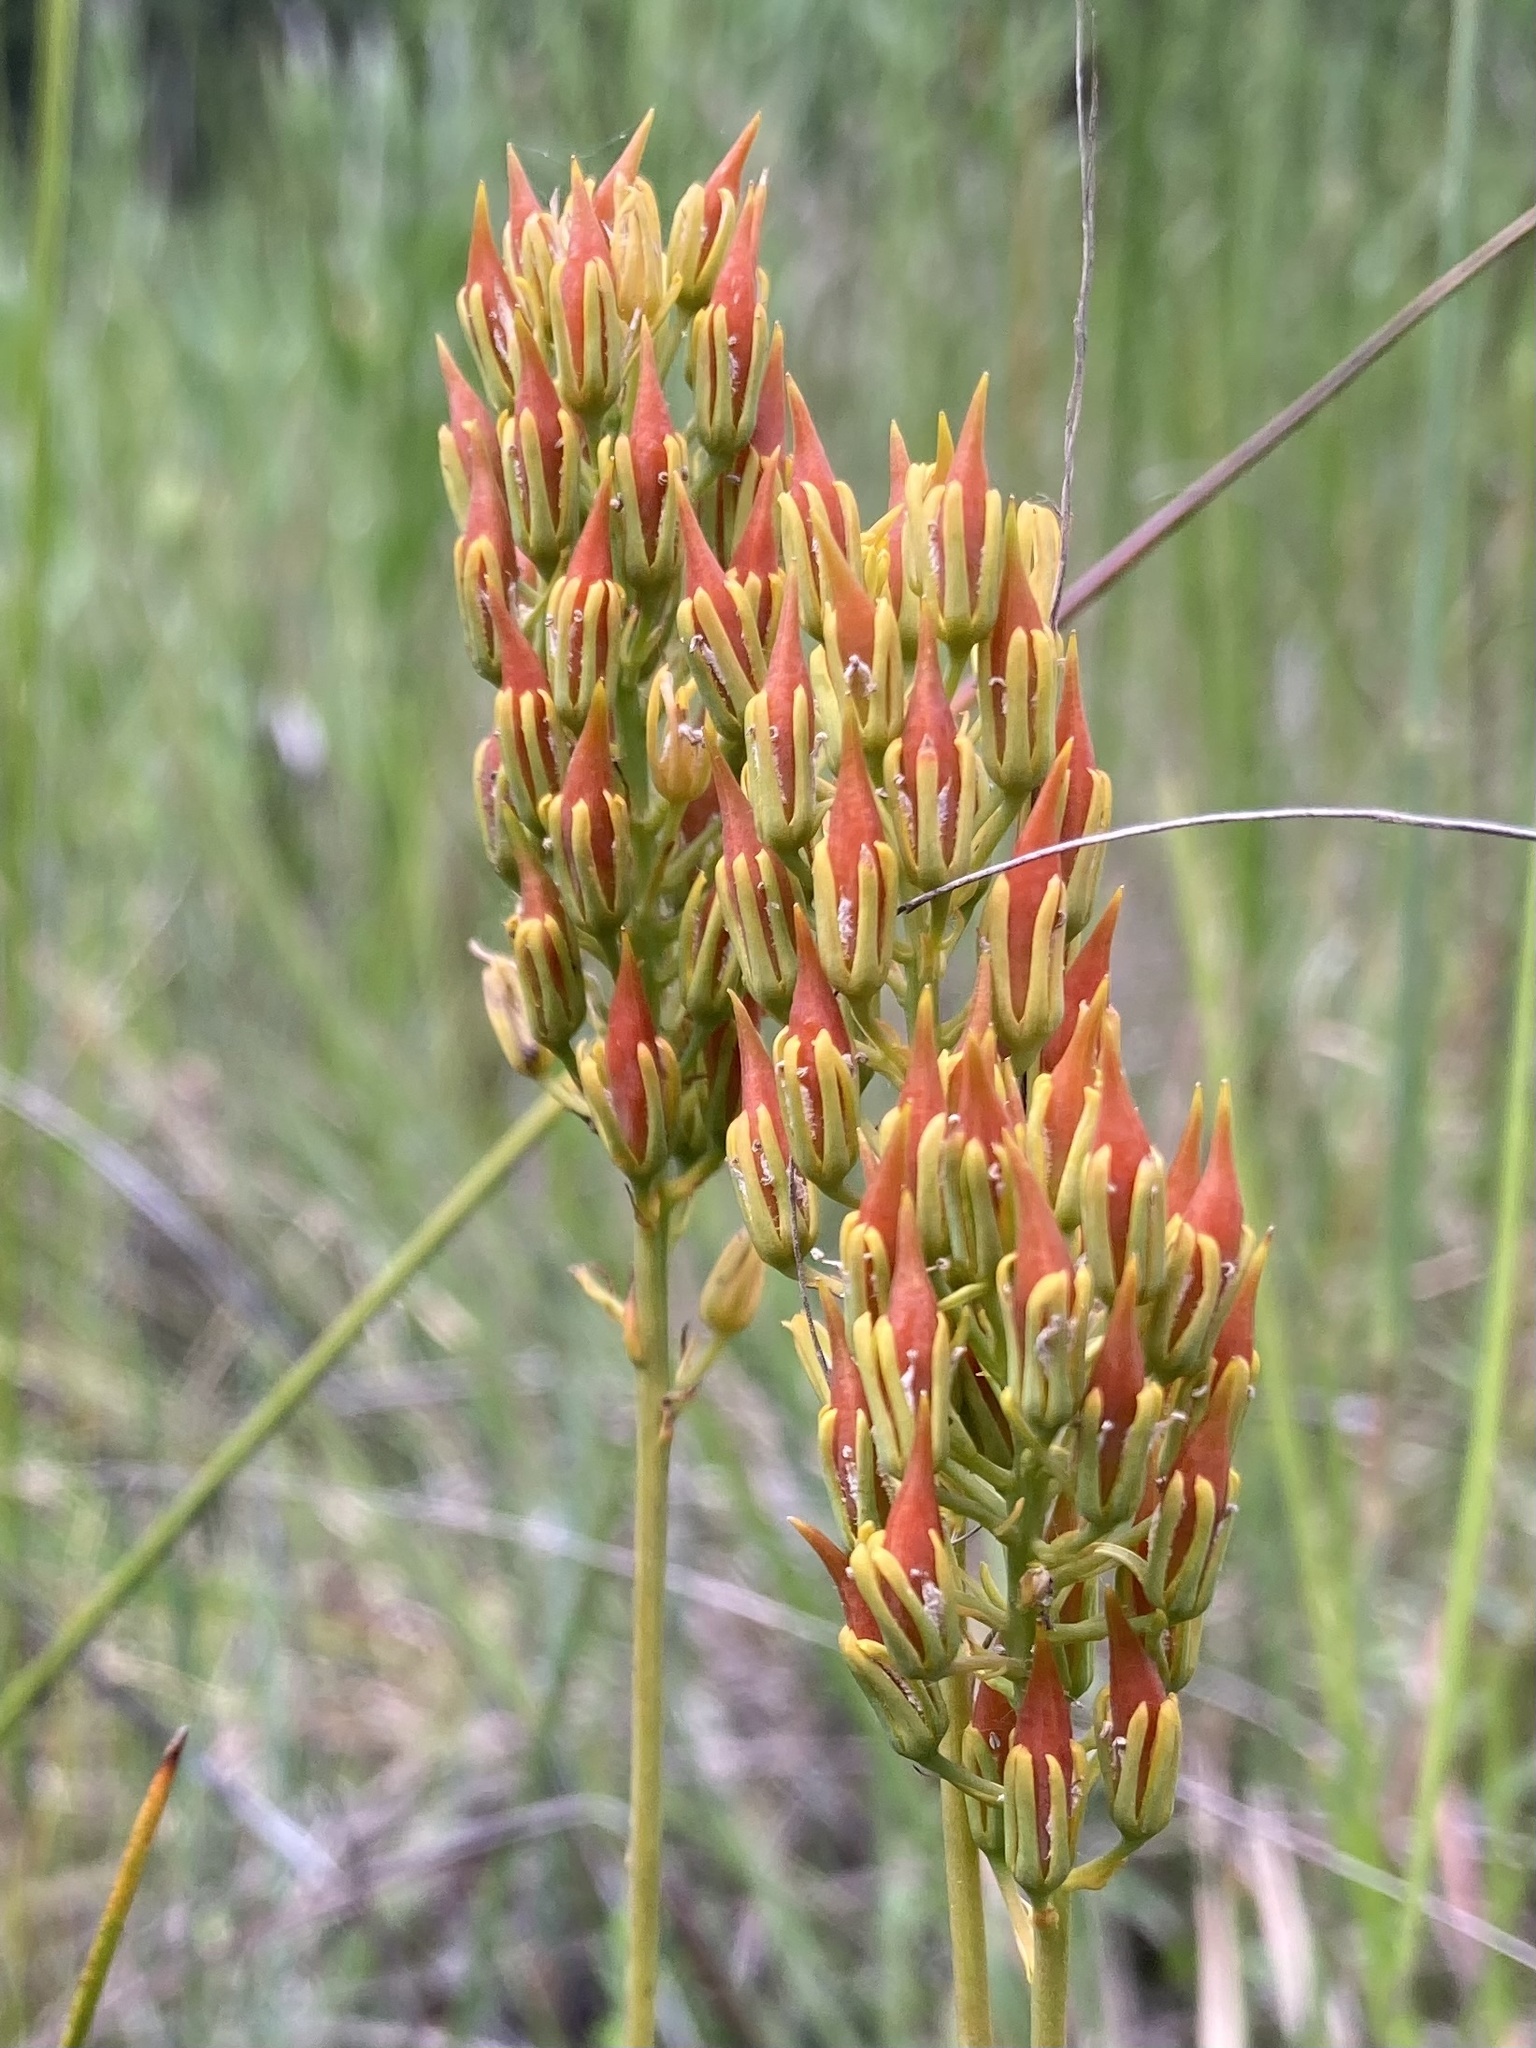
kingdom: Plantae
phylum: Tracheophyta
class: Liliopsida
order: Dioscoreales
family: Nartheciaceae
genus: Narthecium
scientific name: Narthecium americanum
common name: Bog-asphodel
